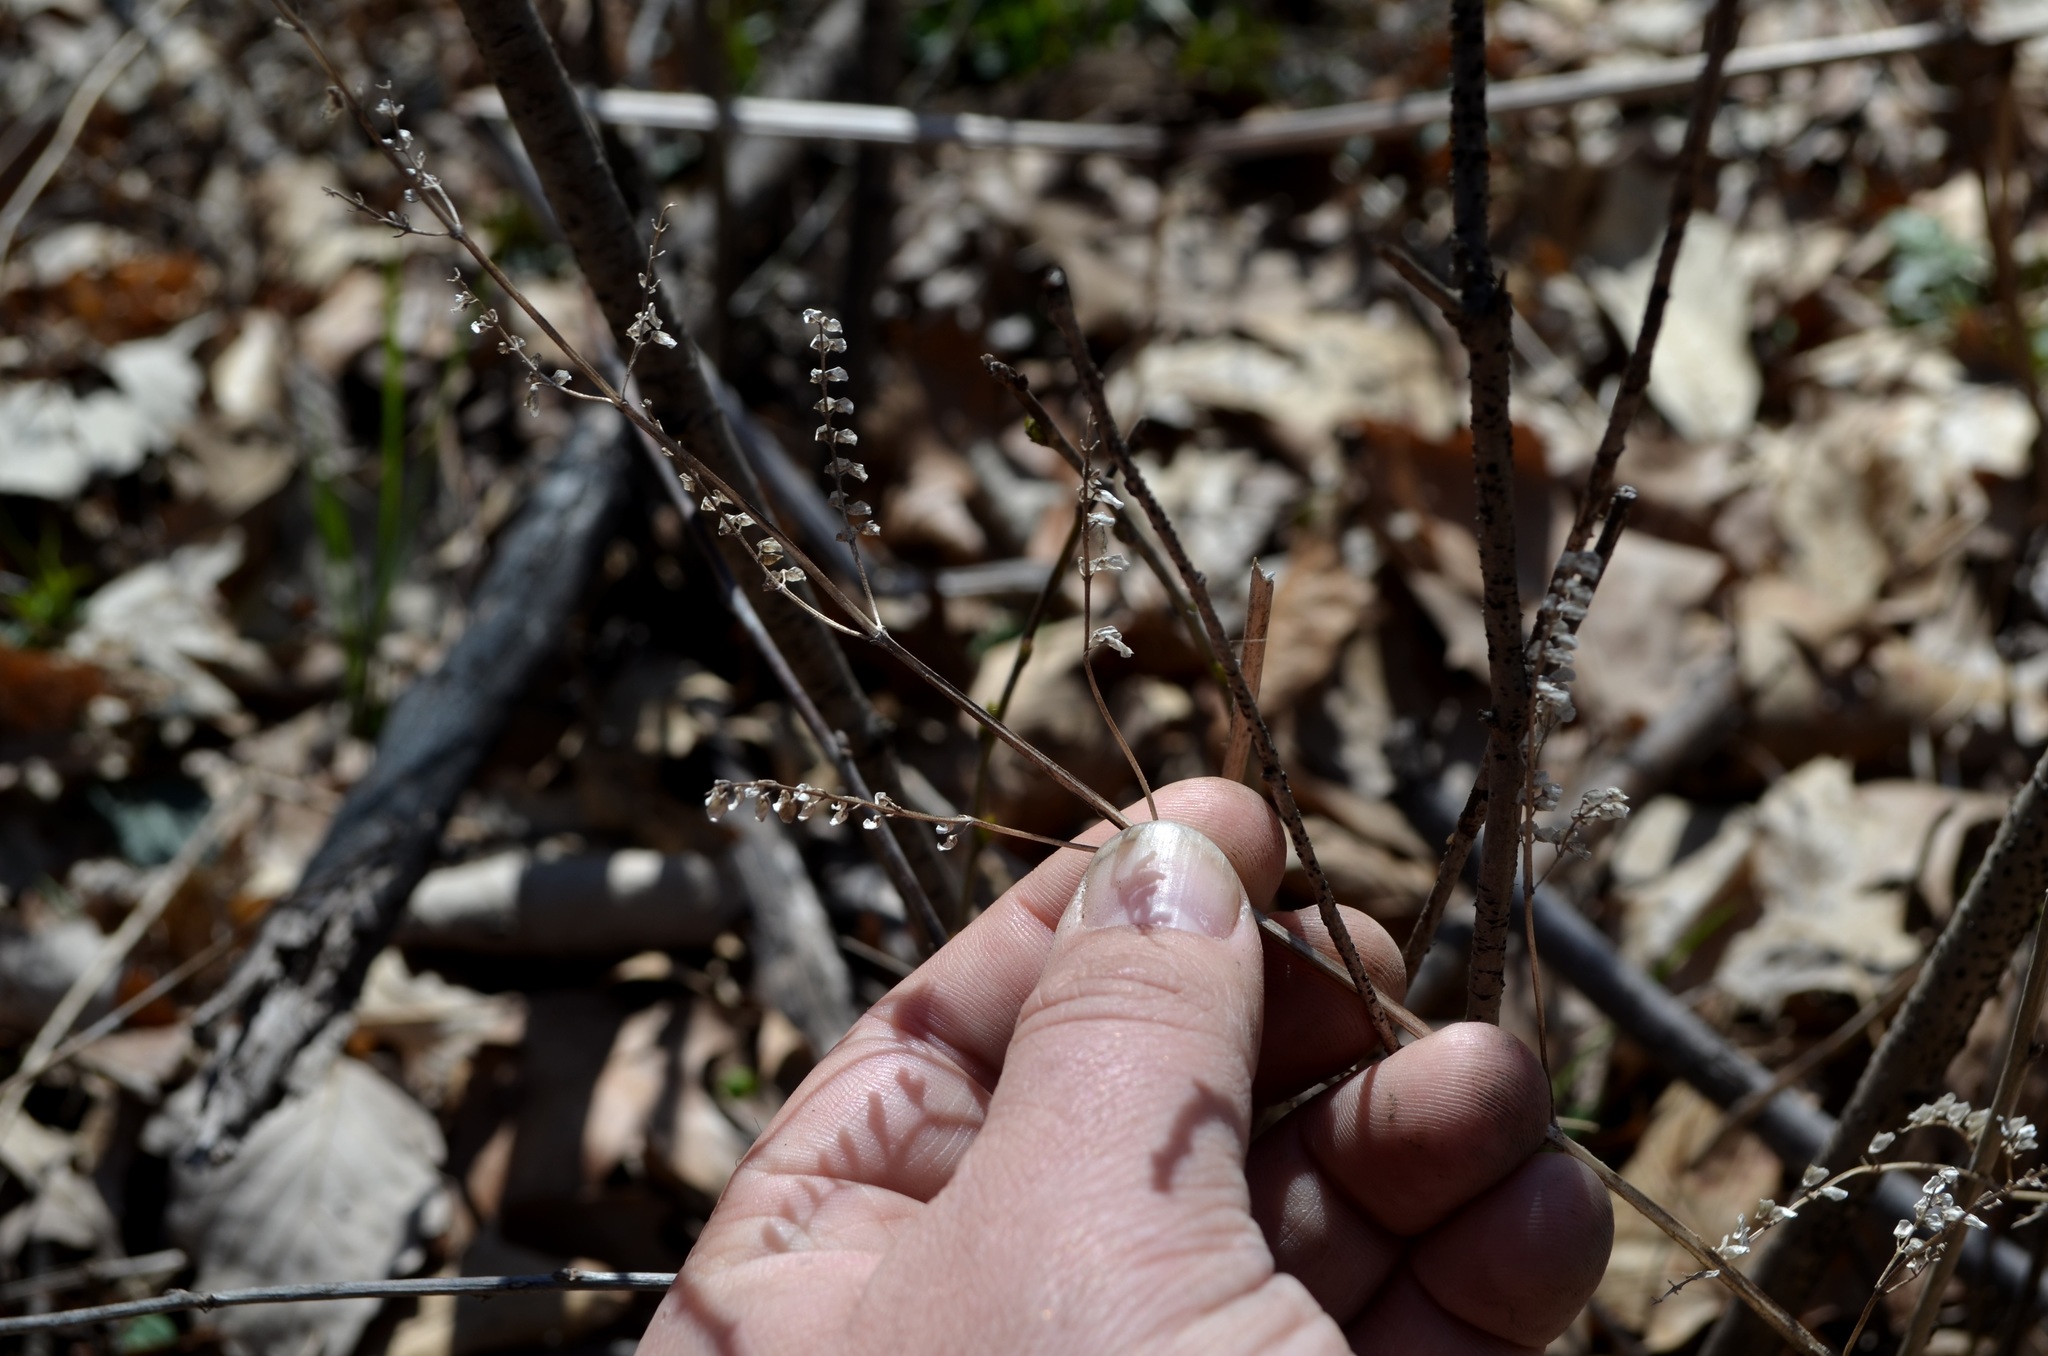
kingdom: Plantae
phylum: Tracheophyta
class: Magnoliopsida
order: Lamiales
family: Lamiaceae
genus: Scutellaria
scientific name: Scutellaria lateriflora
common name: Blue skullcap
